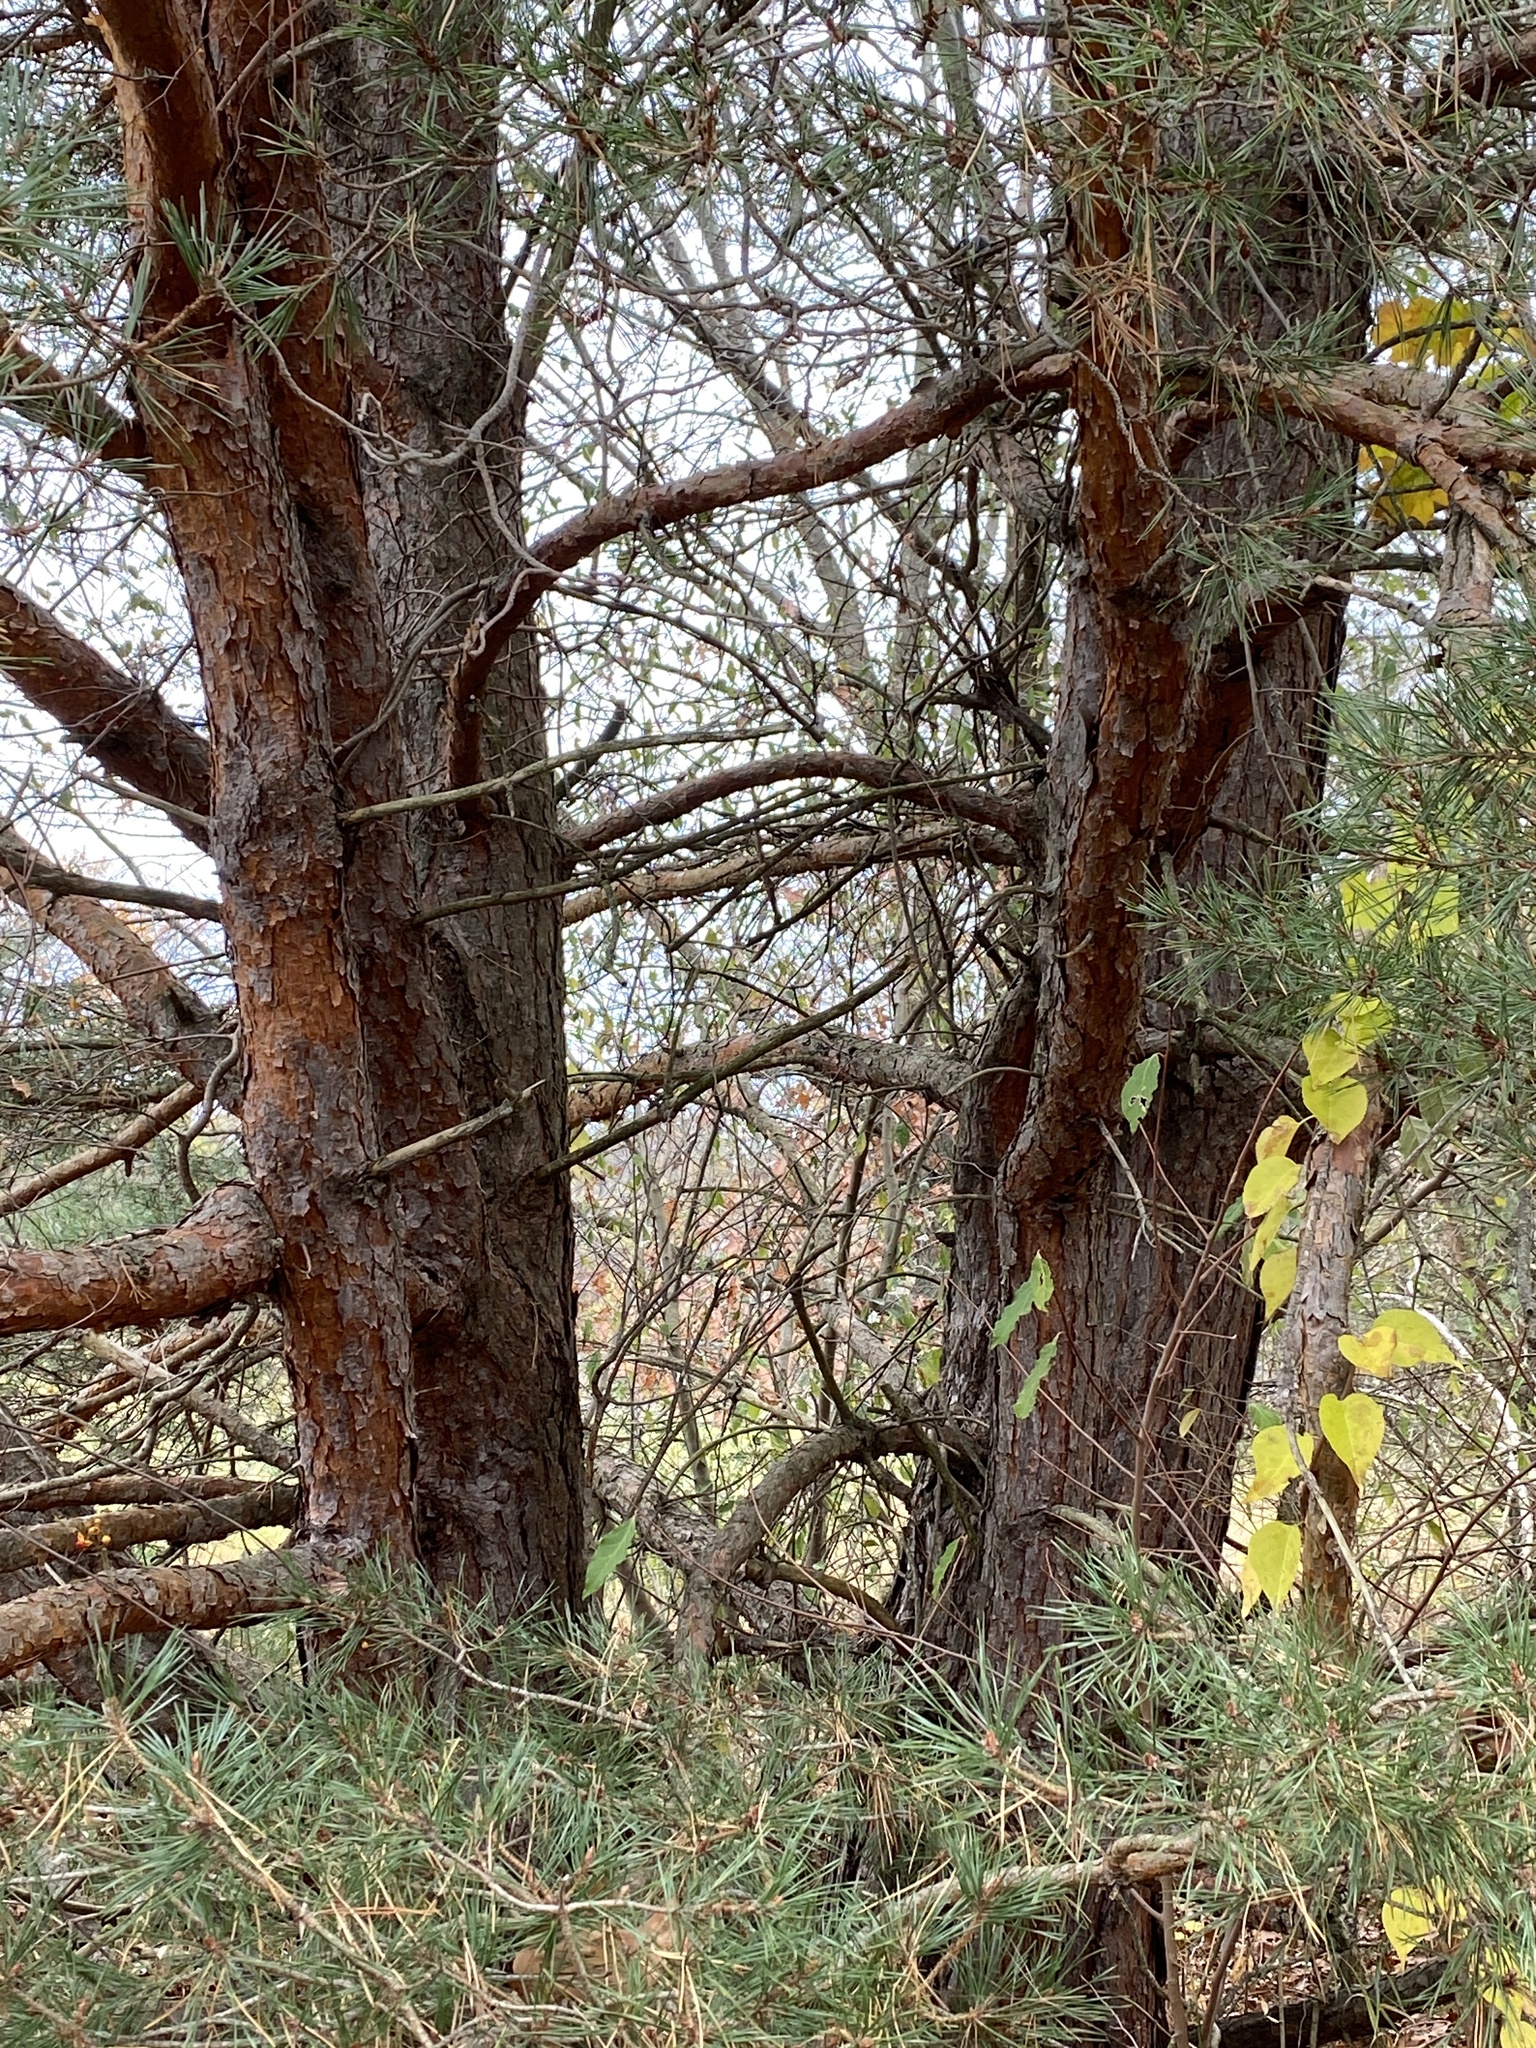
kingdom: Plantae
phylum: Tracheophyta
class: Pinopsida
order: Pinales
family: Pinaceae
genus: Pinus
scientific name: Pinus sylvestris
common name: Scots pine
